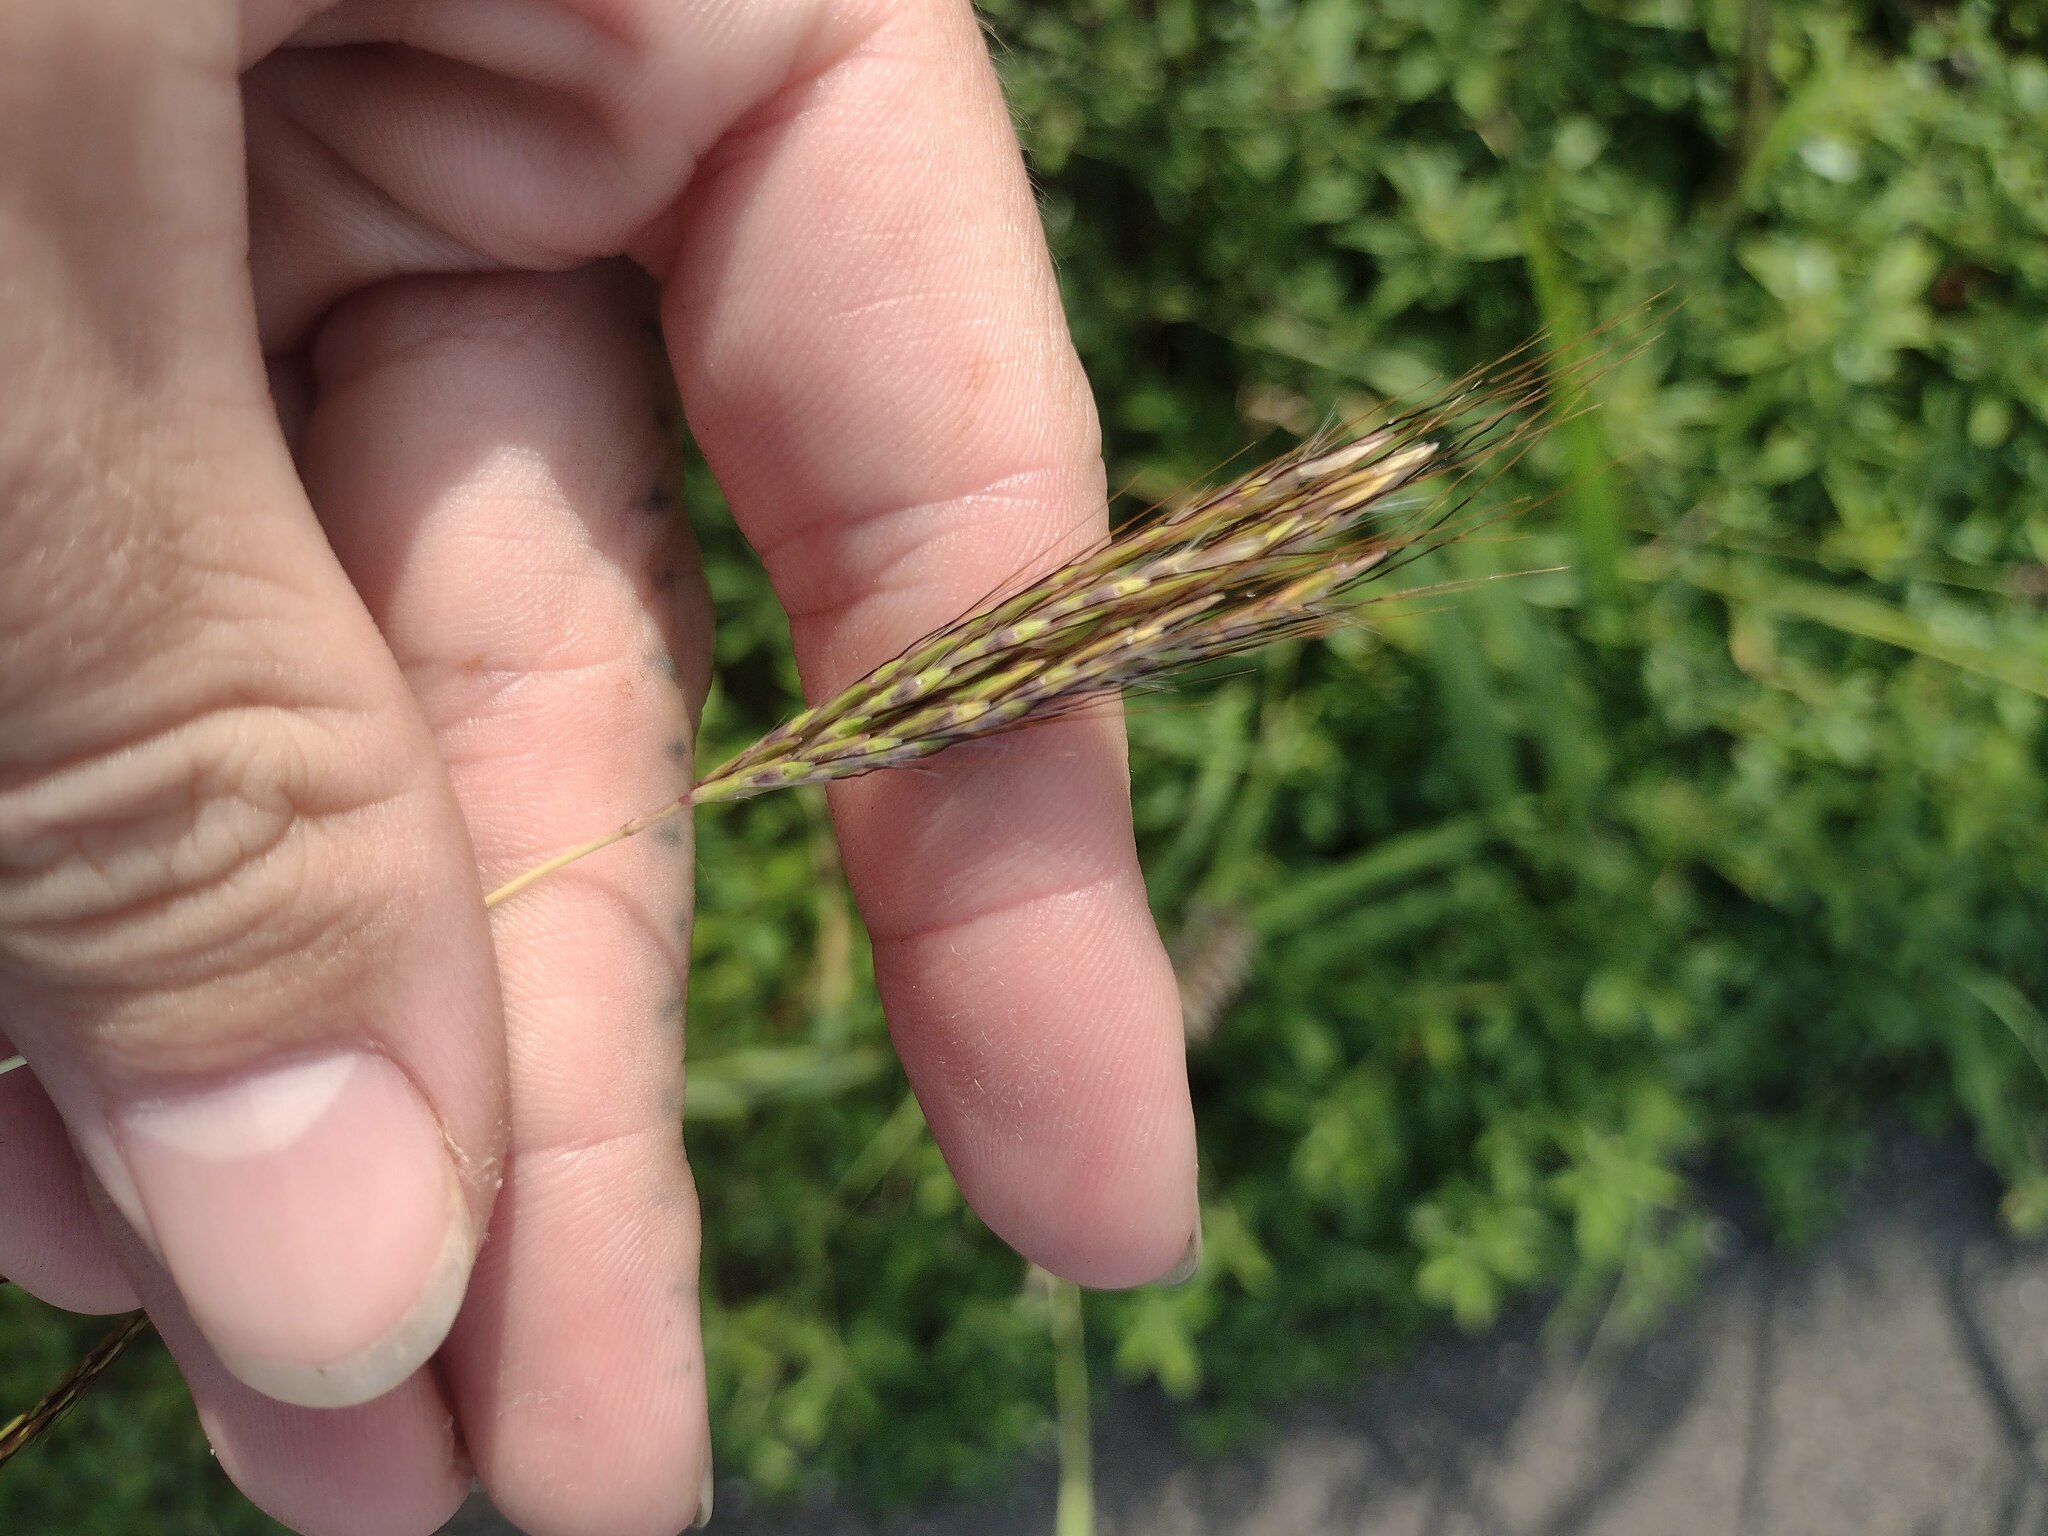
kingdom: Plantae
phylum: Tracheophyta
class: Liliopsida
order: Poales
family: Poaceae
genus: Bothriochloa
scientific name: Bothriochloa pertusa
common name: Pitted beardgrass
